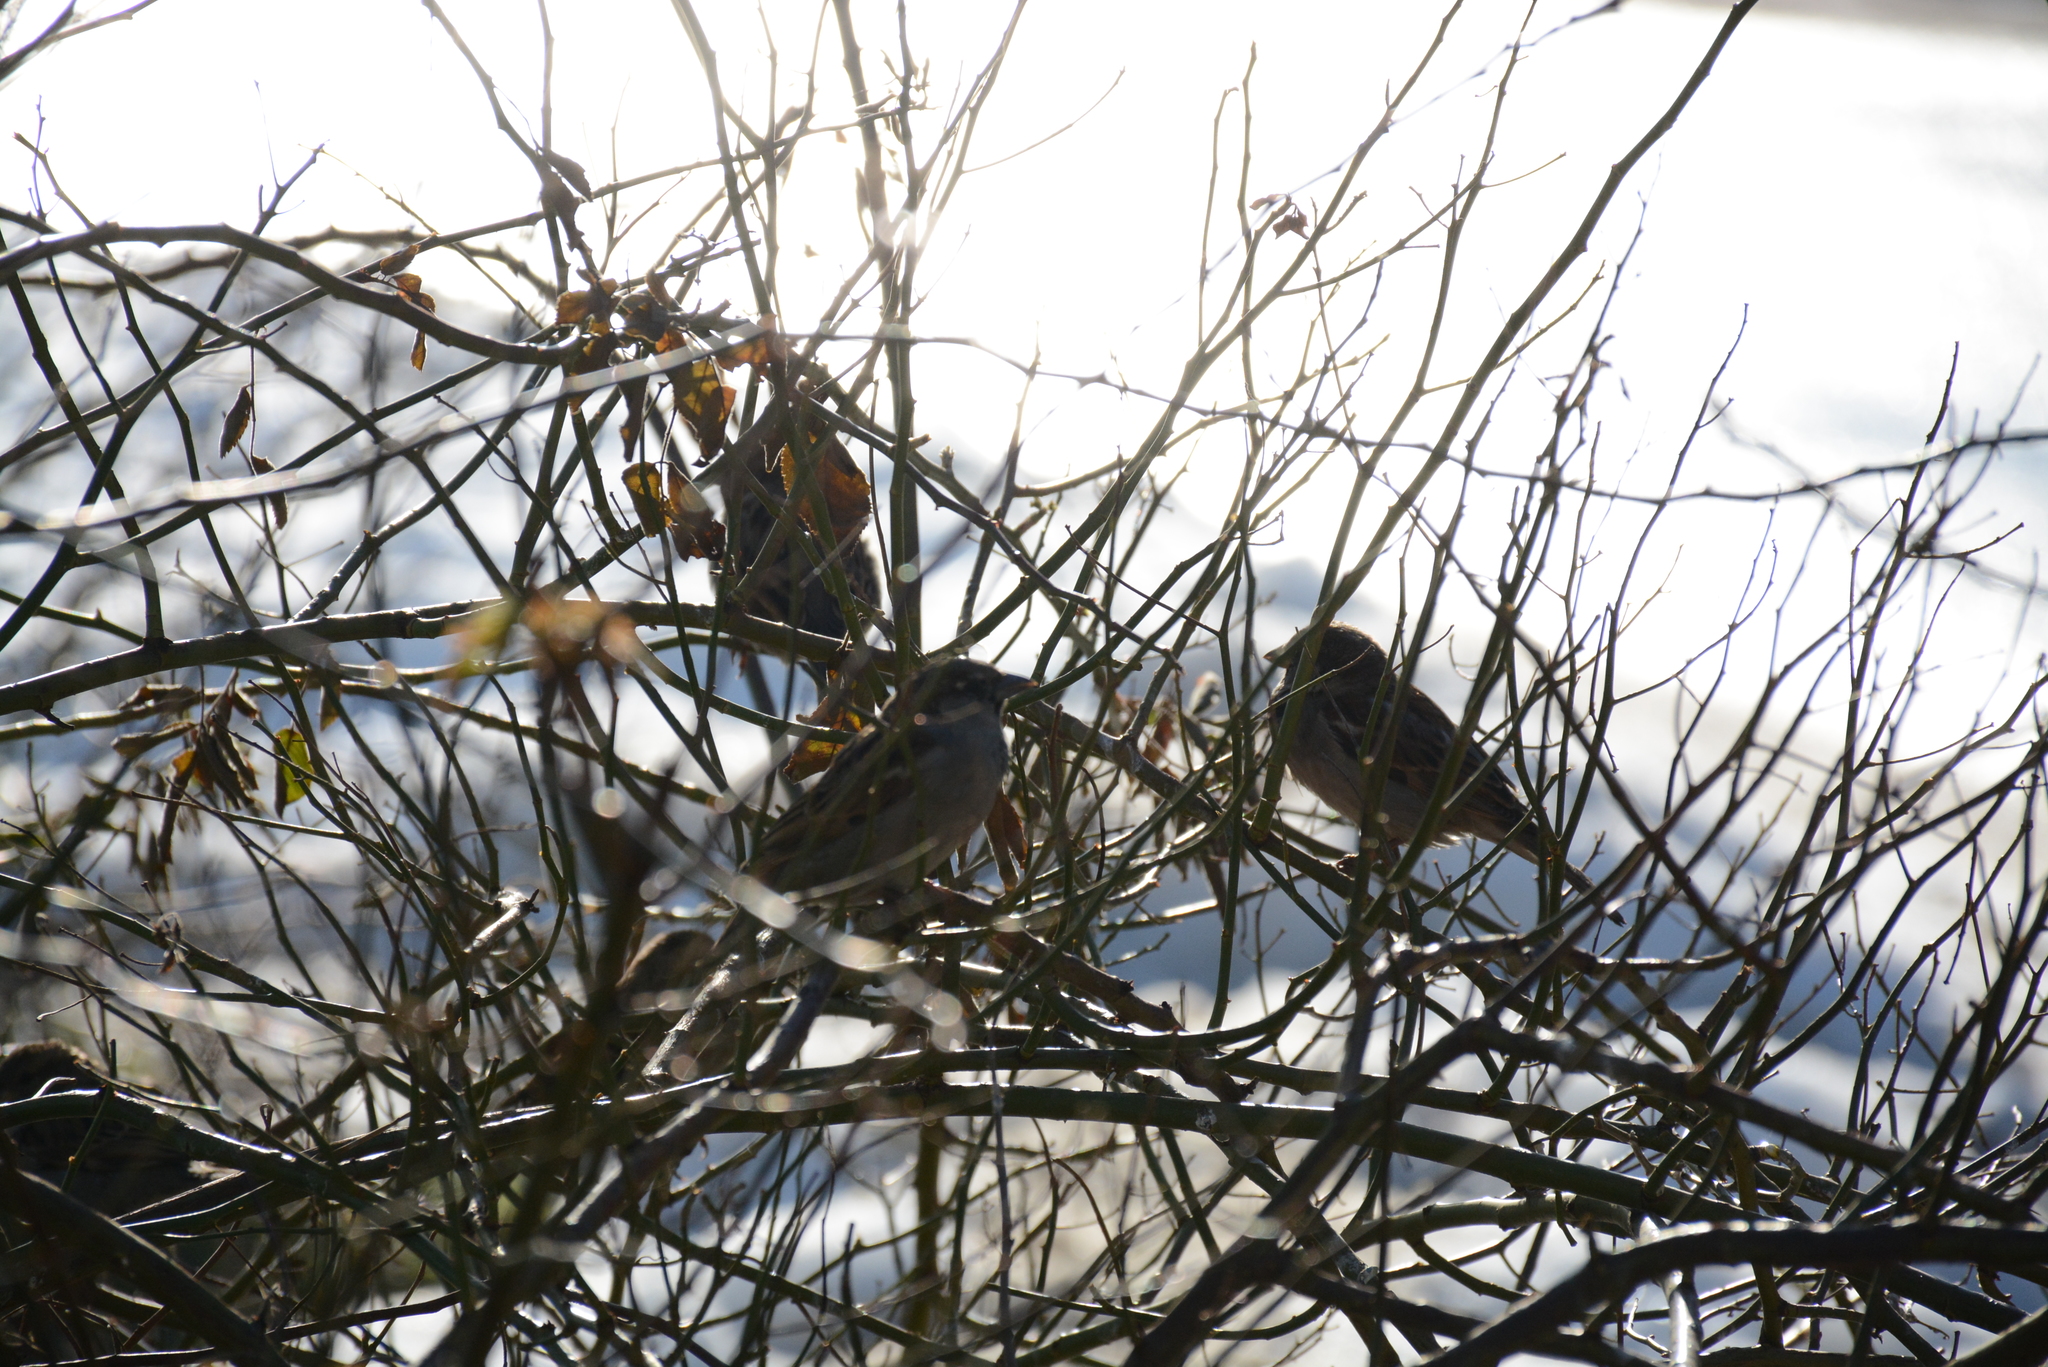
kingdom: Animalia
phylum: Chordata
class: Aves
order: Passeriformes
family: Passeridae
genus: Passer
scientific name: Passer domesticus
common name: House sparrow
